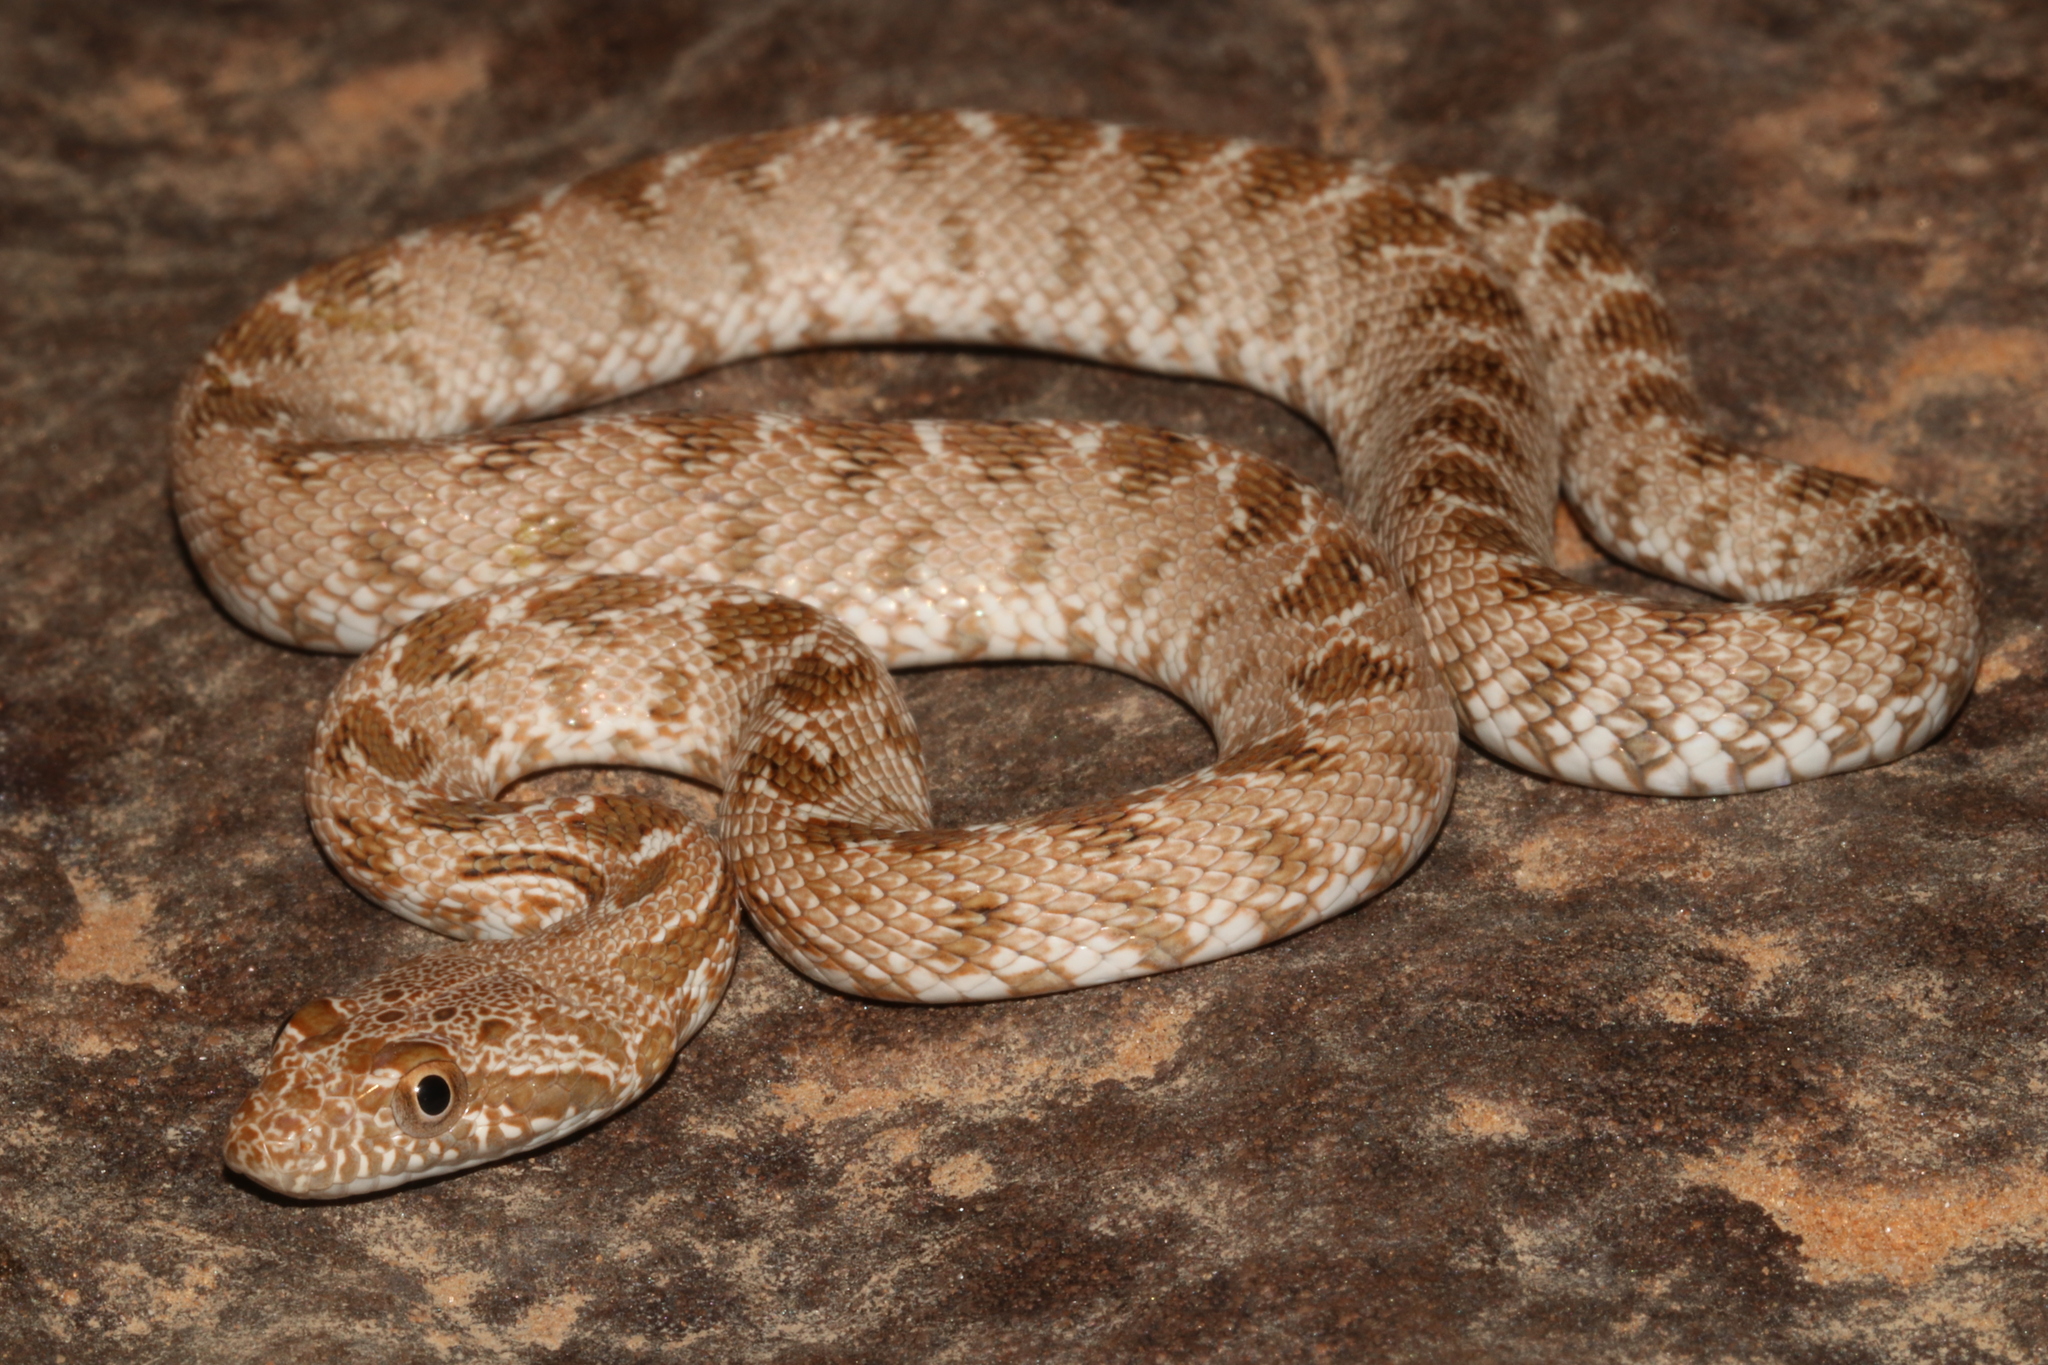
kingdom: Animalia
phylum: Chordata
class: Squamata
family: Colubridae
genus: Spalerosophis
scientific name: Spalerosophis diadema
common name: Diadem snake
